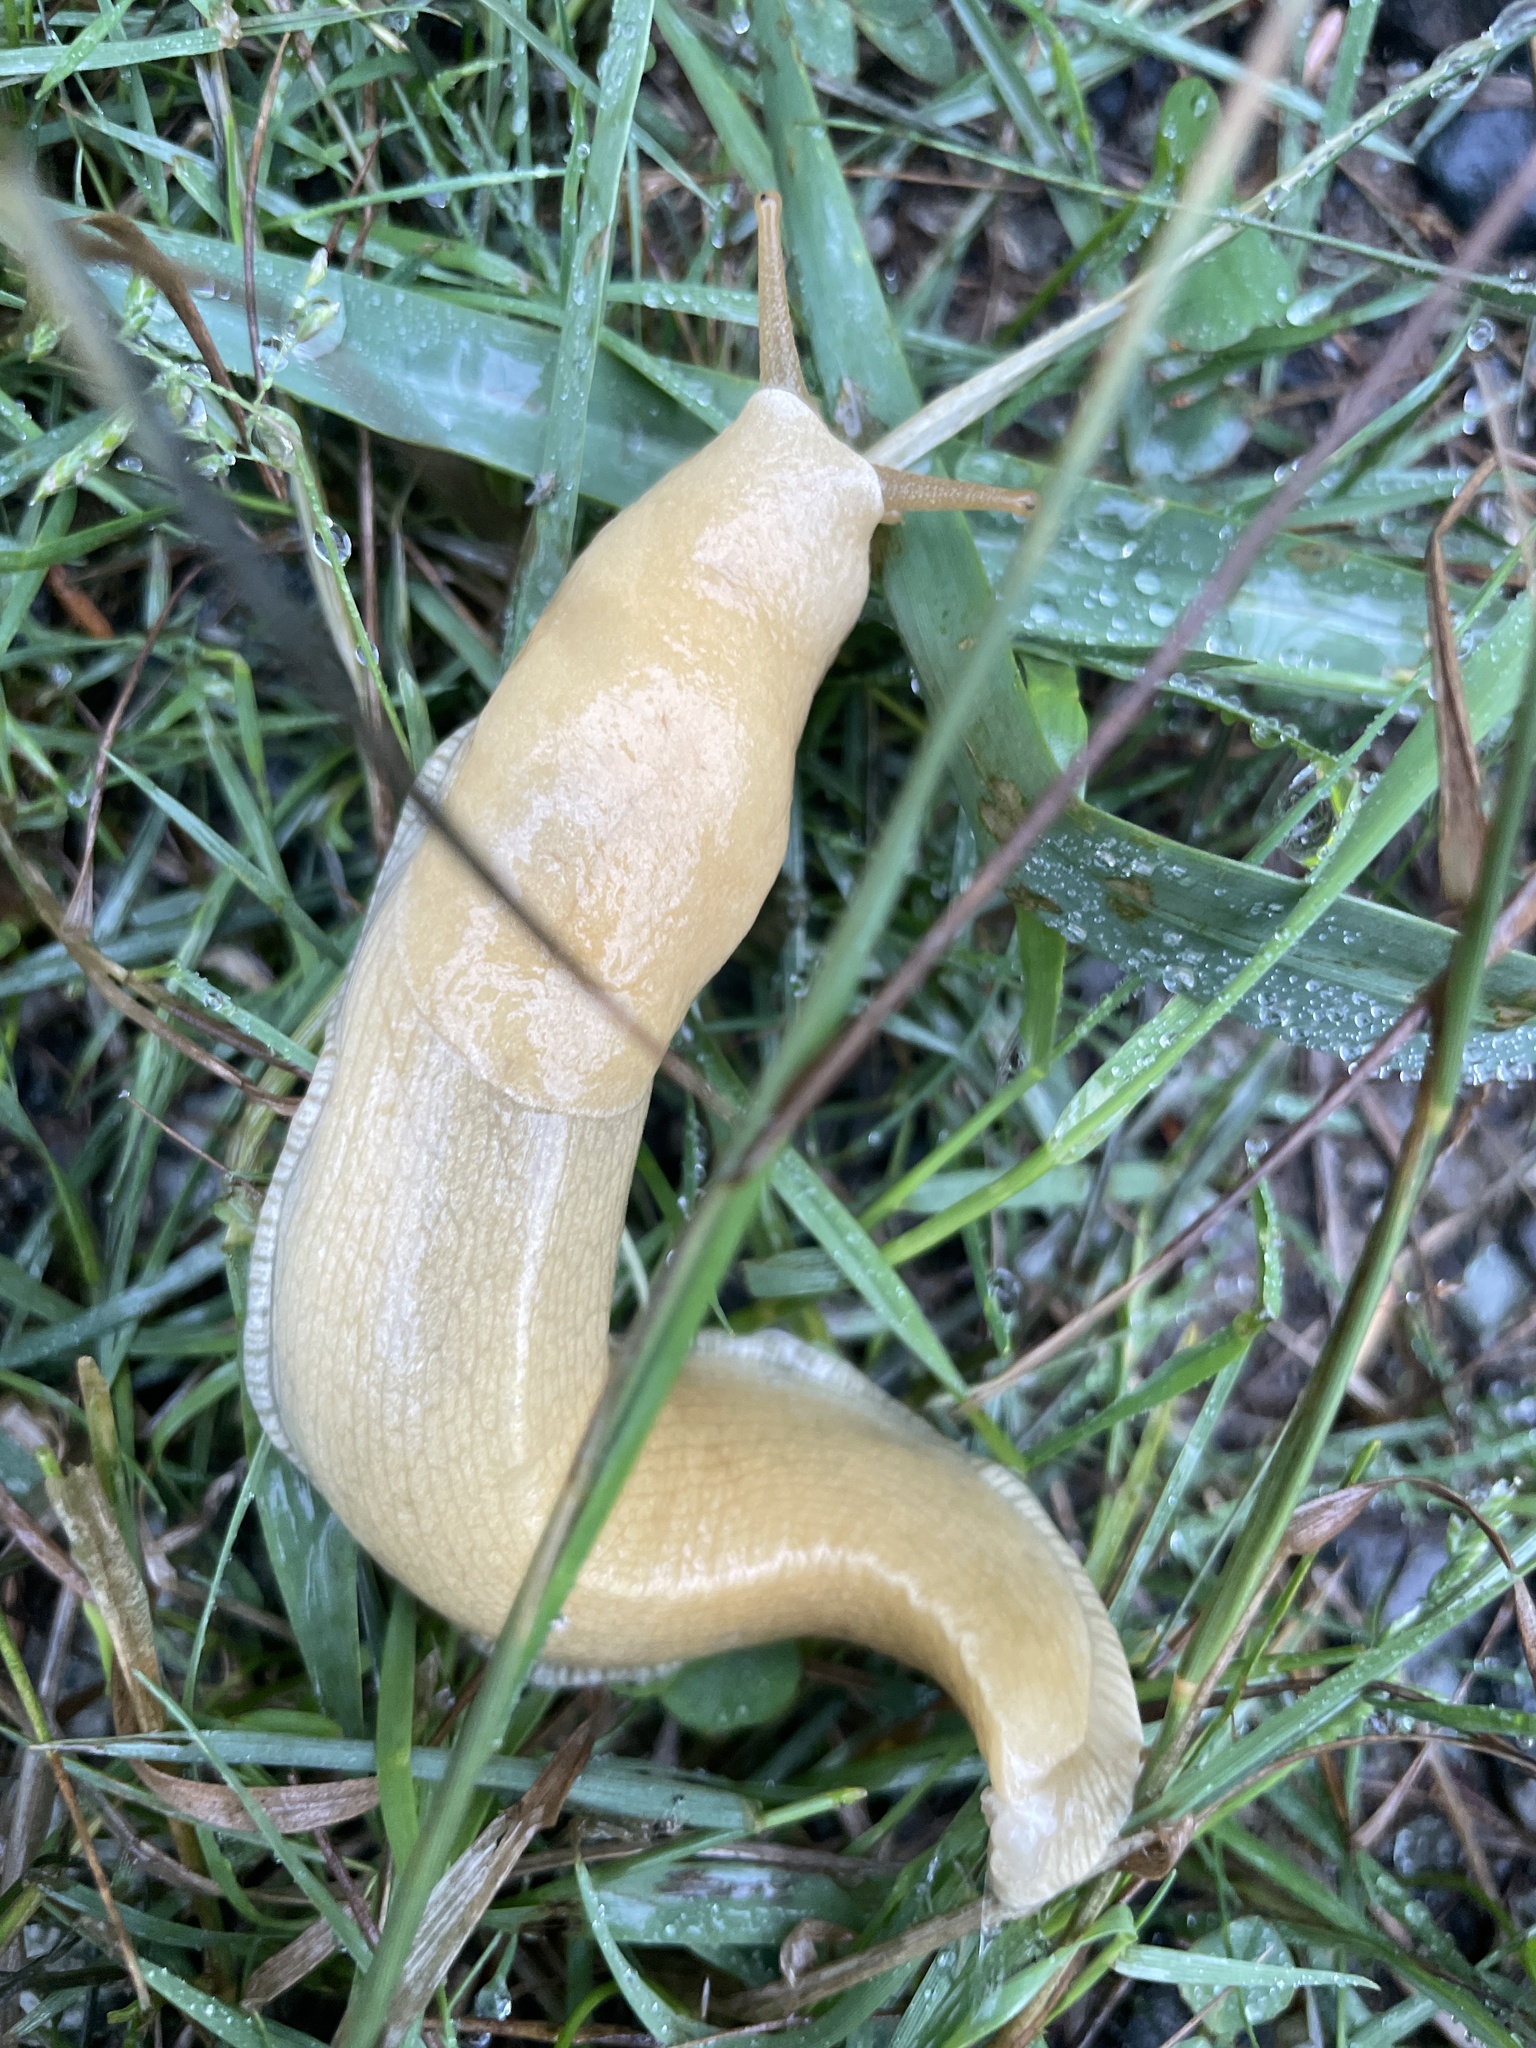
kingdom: Animalia
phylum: Mollusca
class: Gastropoda
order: Stylommatophora
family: Ariolimacidae
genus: Ariolimax
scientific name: Ariolimax columbianus
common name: Pacific banana slug
